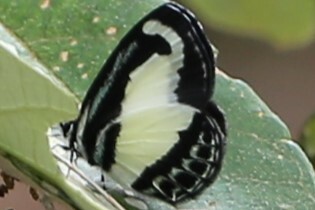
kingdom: Animalia
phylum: Arthropoda
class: Insecta
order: Lepidoptera
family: Lycaenidae
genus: Psychonotis
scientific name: Psychonotis caelius
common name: Small green banded blue
